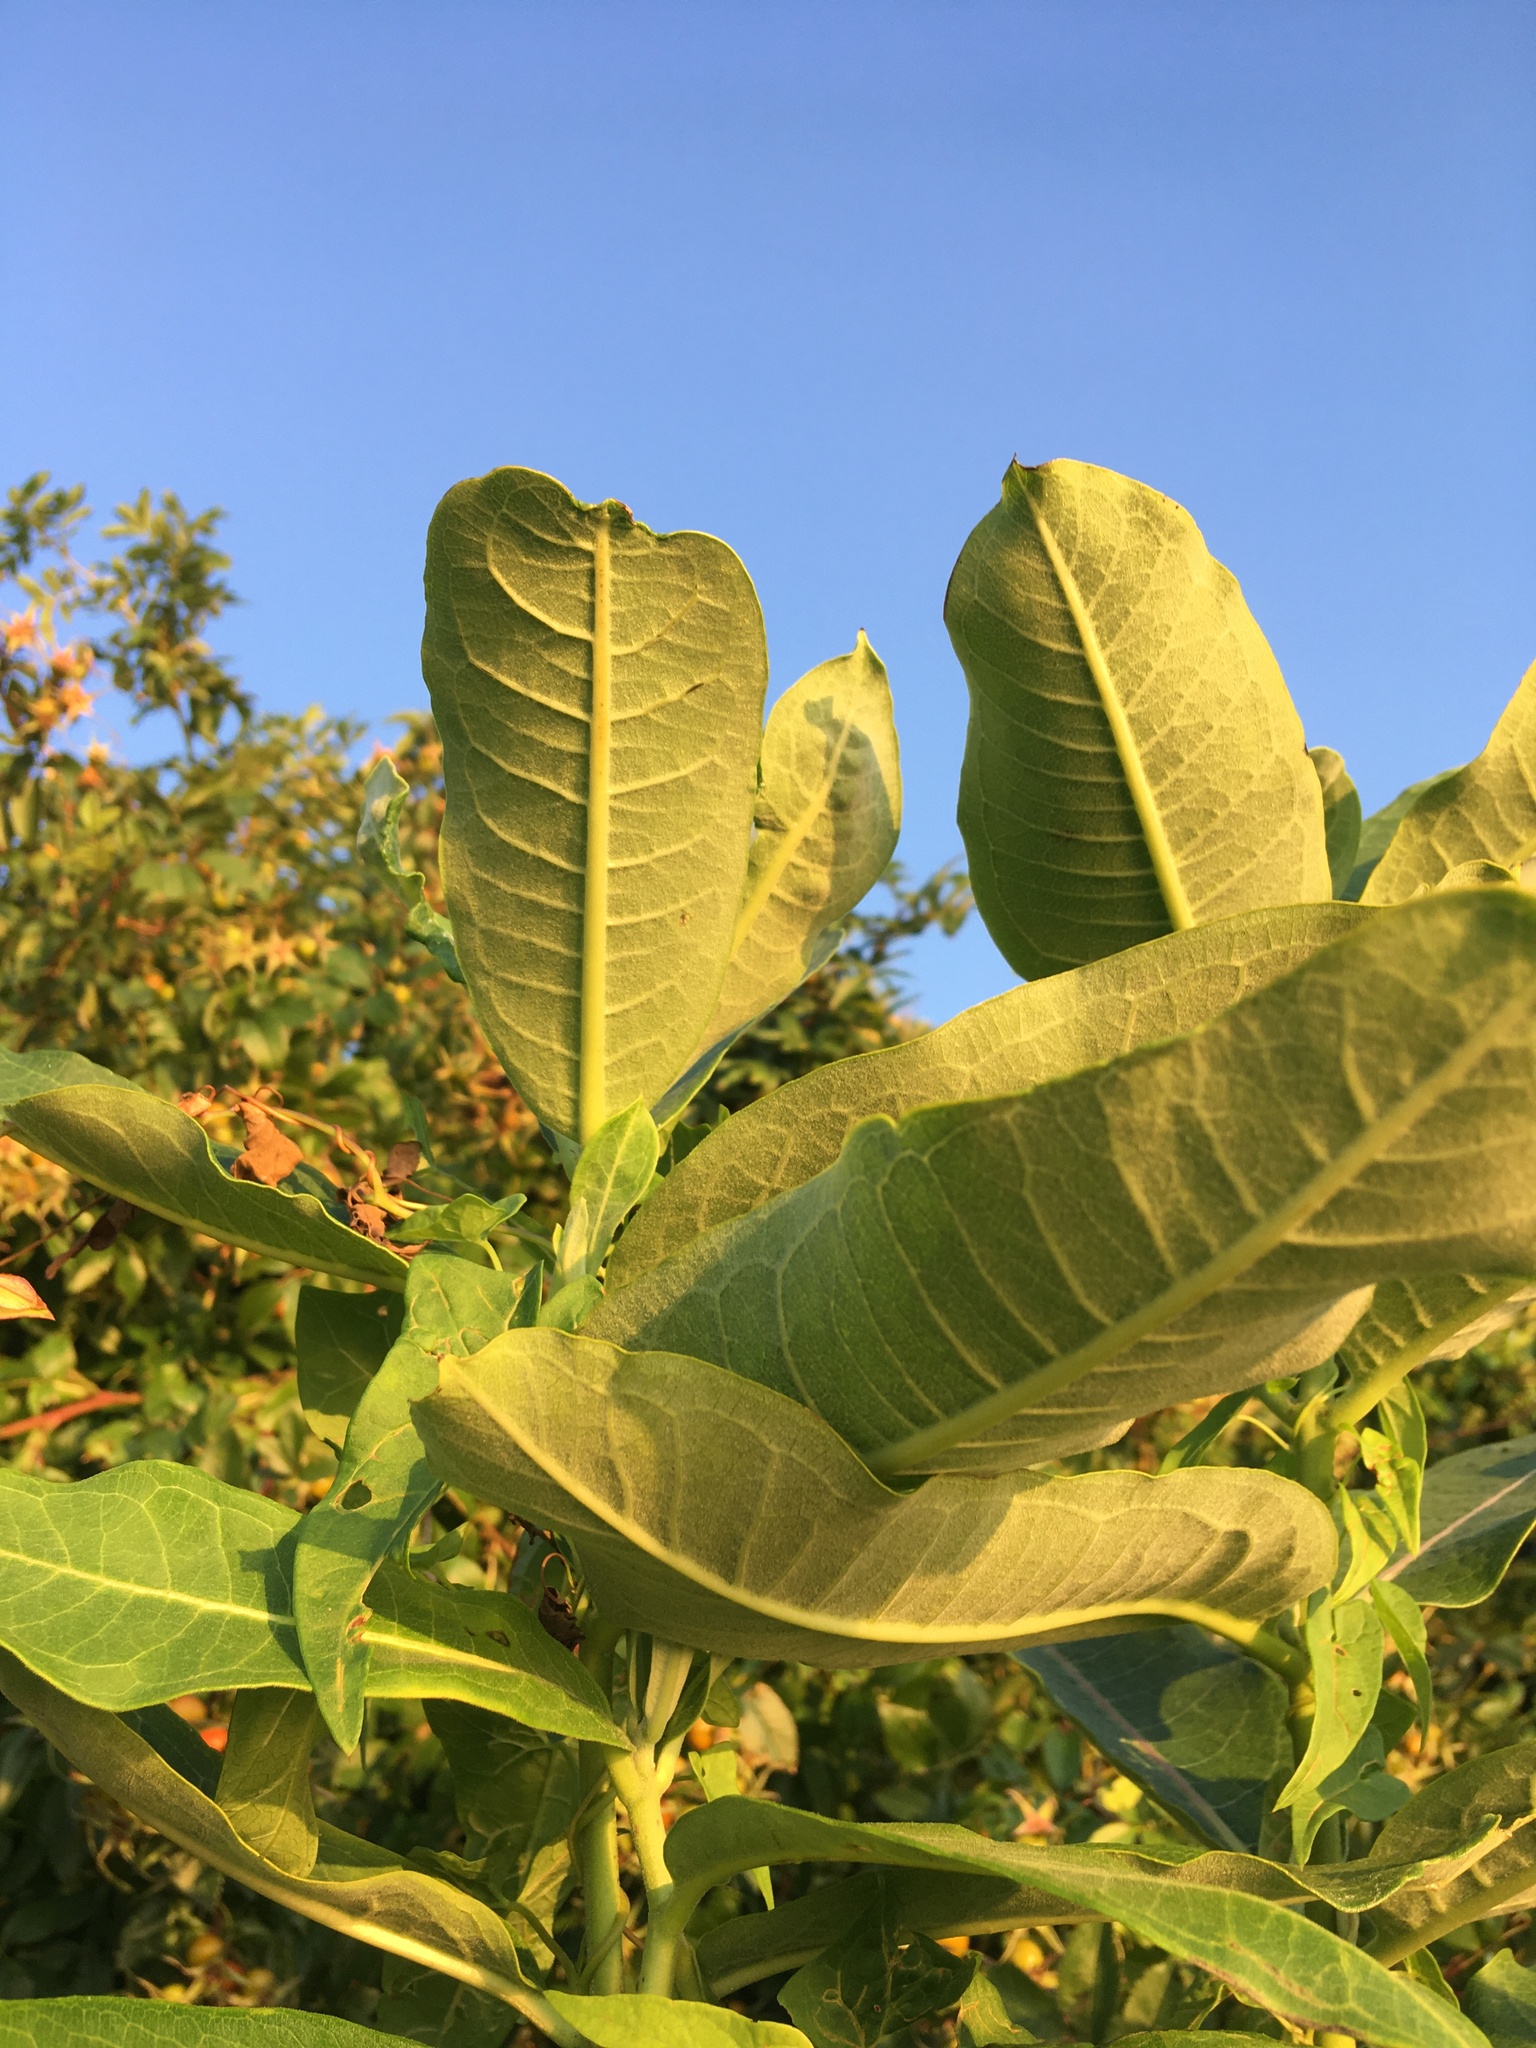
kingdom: Plantae
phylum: Tracheophyta
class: Magnoliopsida
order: Gentianales
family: Apocynaceae
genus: Asclepias
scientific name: Asclepias syriaca
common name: Common milkweed
